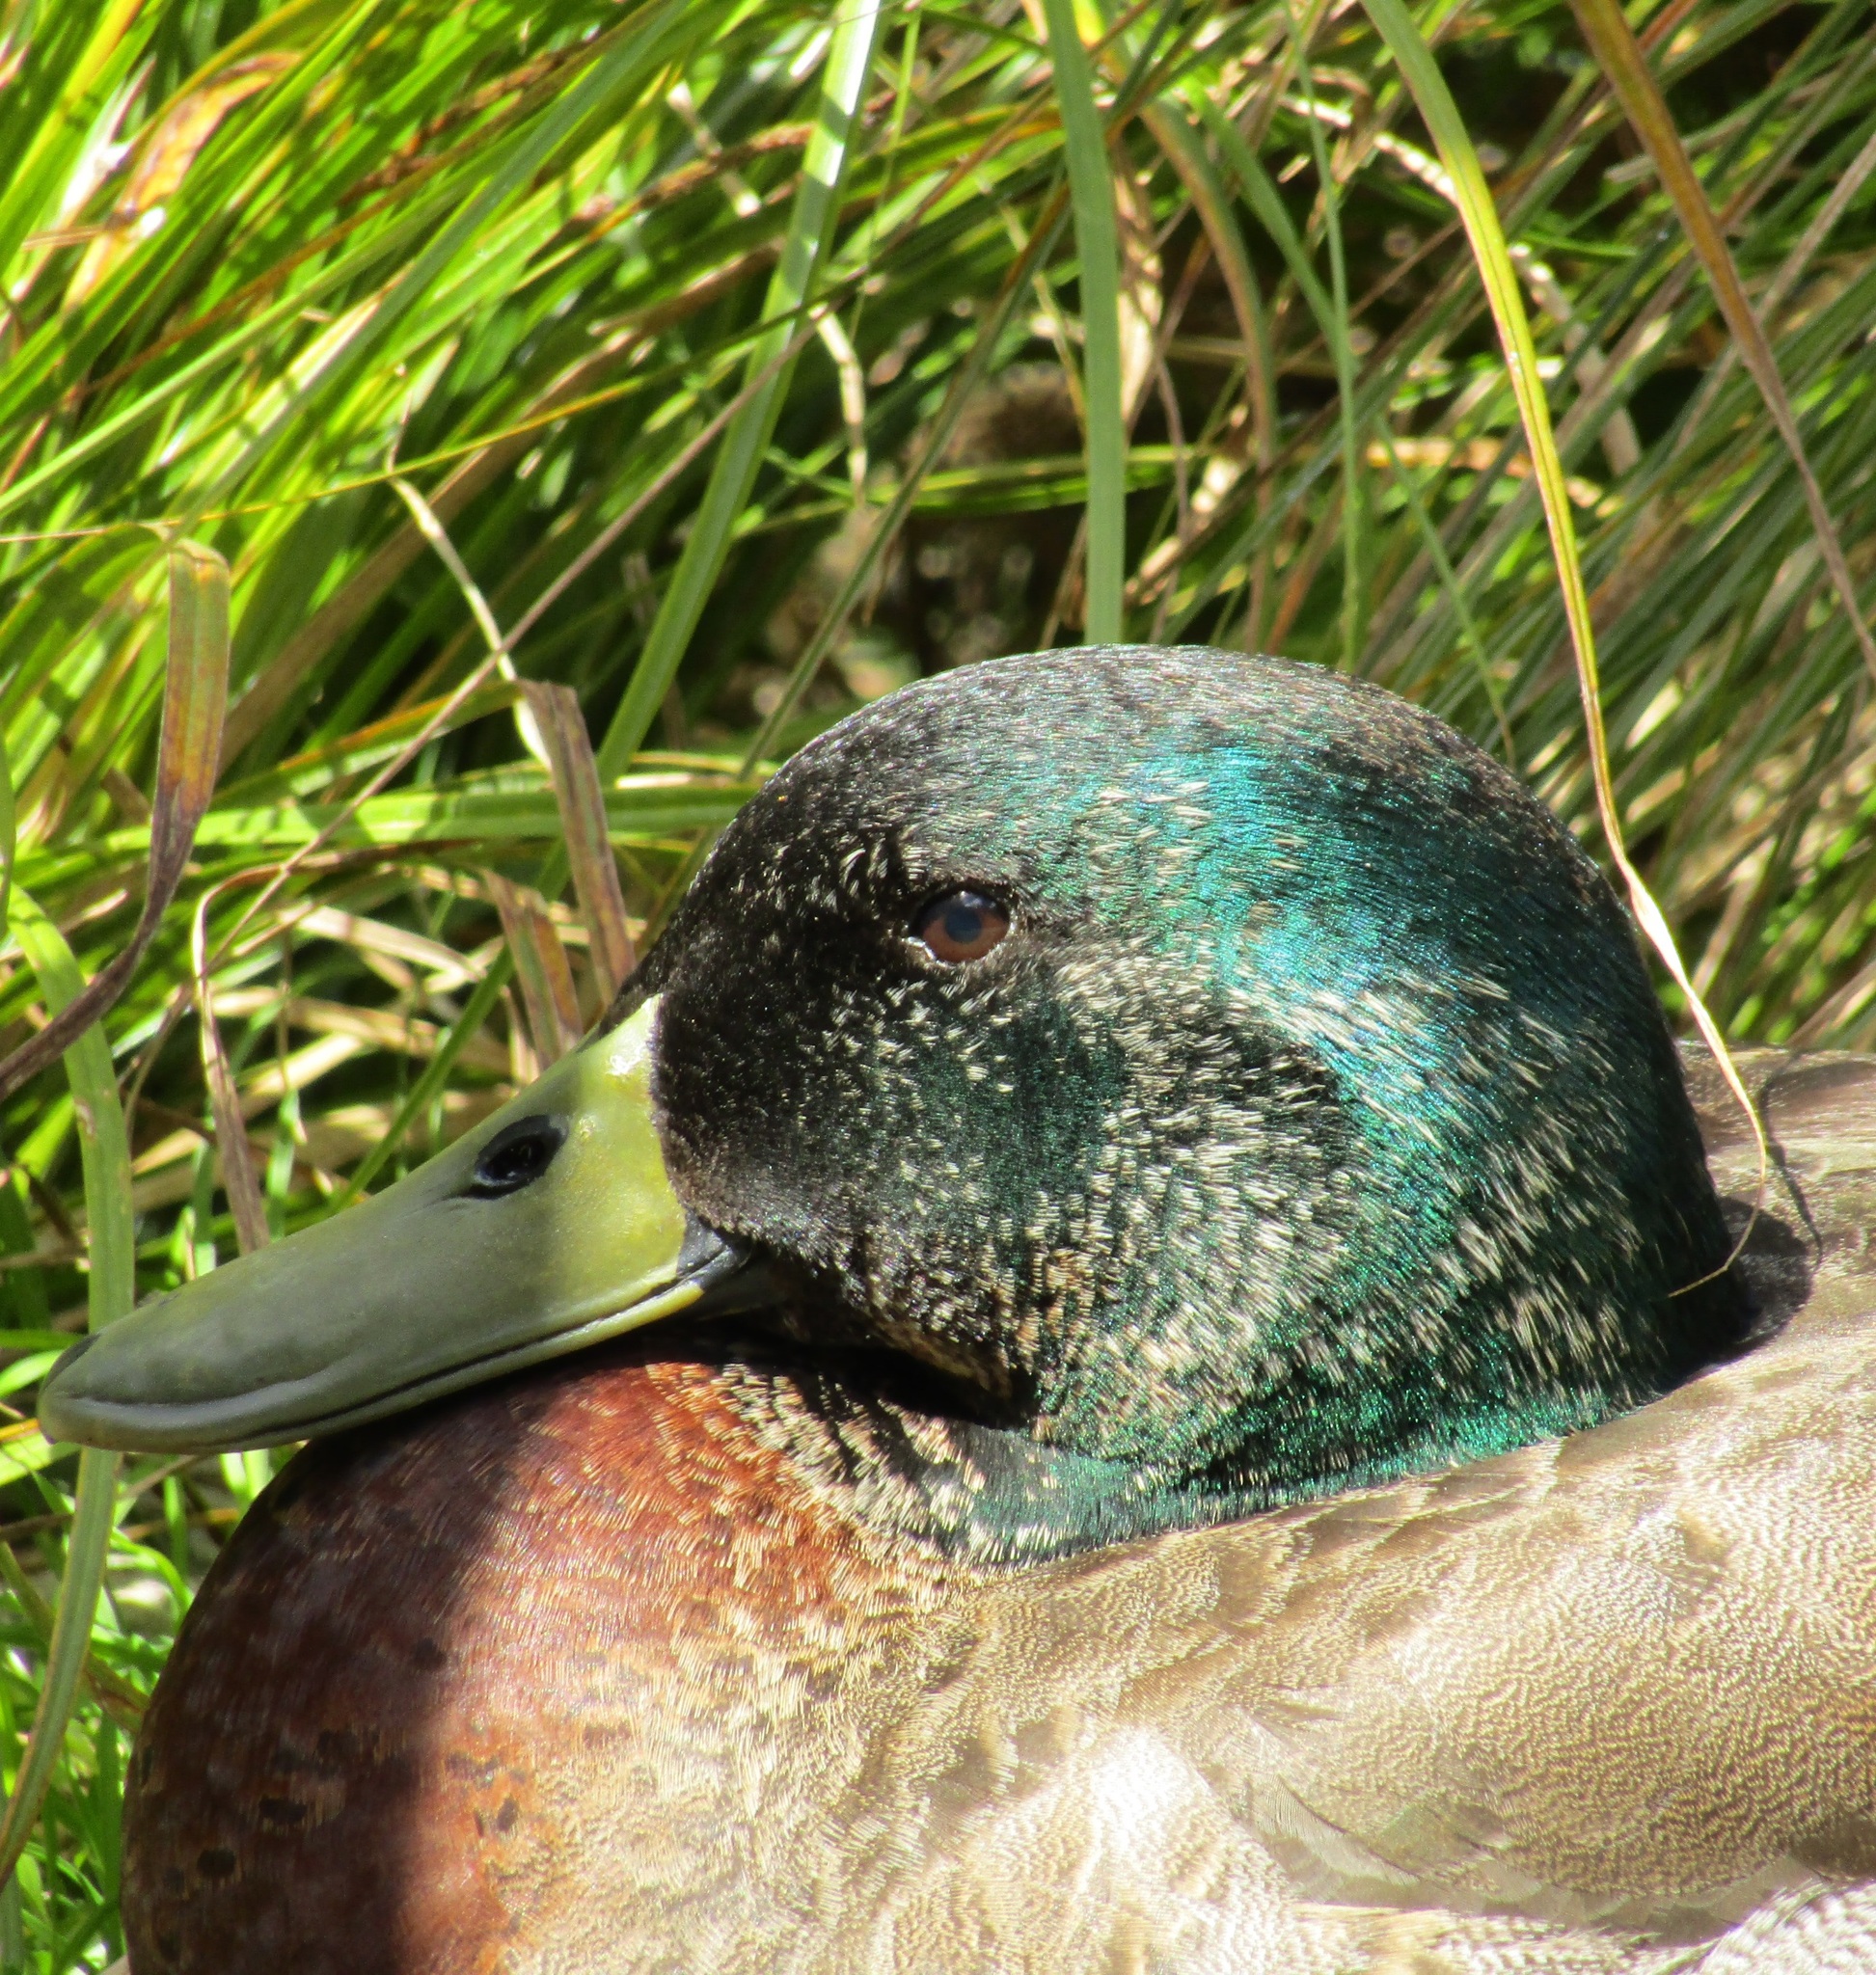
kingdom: Animalia
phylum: Chordata
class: Aves
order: Anseriformes
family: Anatidae
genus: Anas
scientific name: Anas platyrhynchos
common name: Mallard
